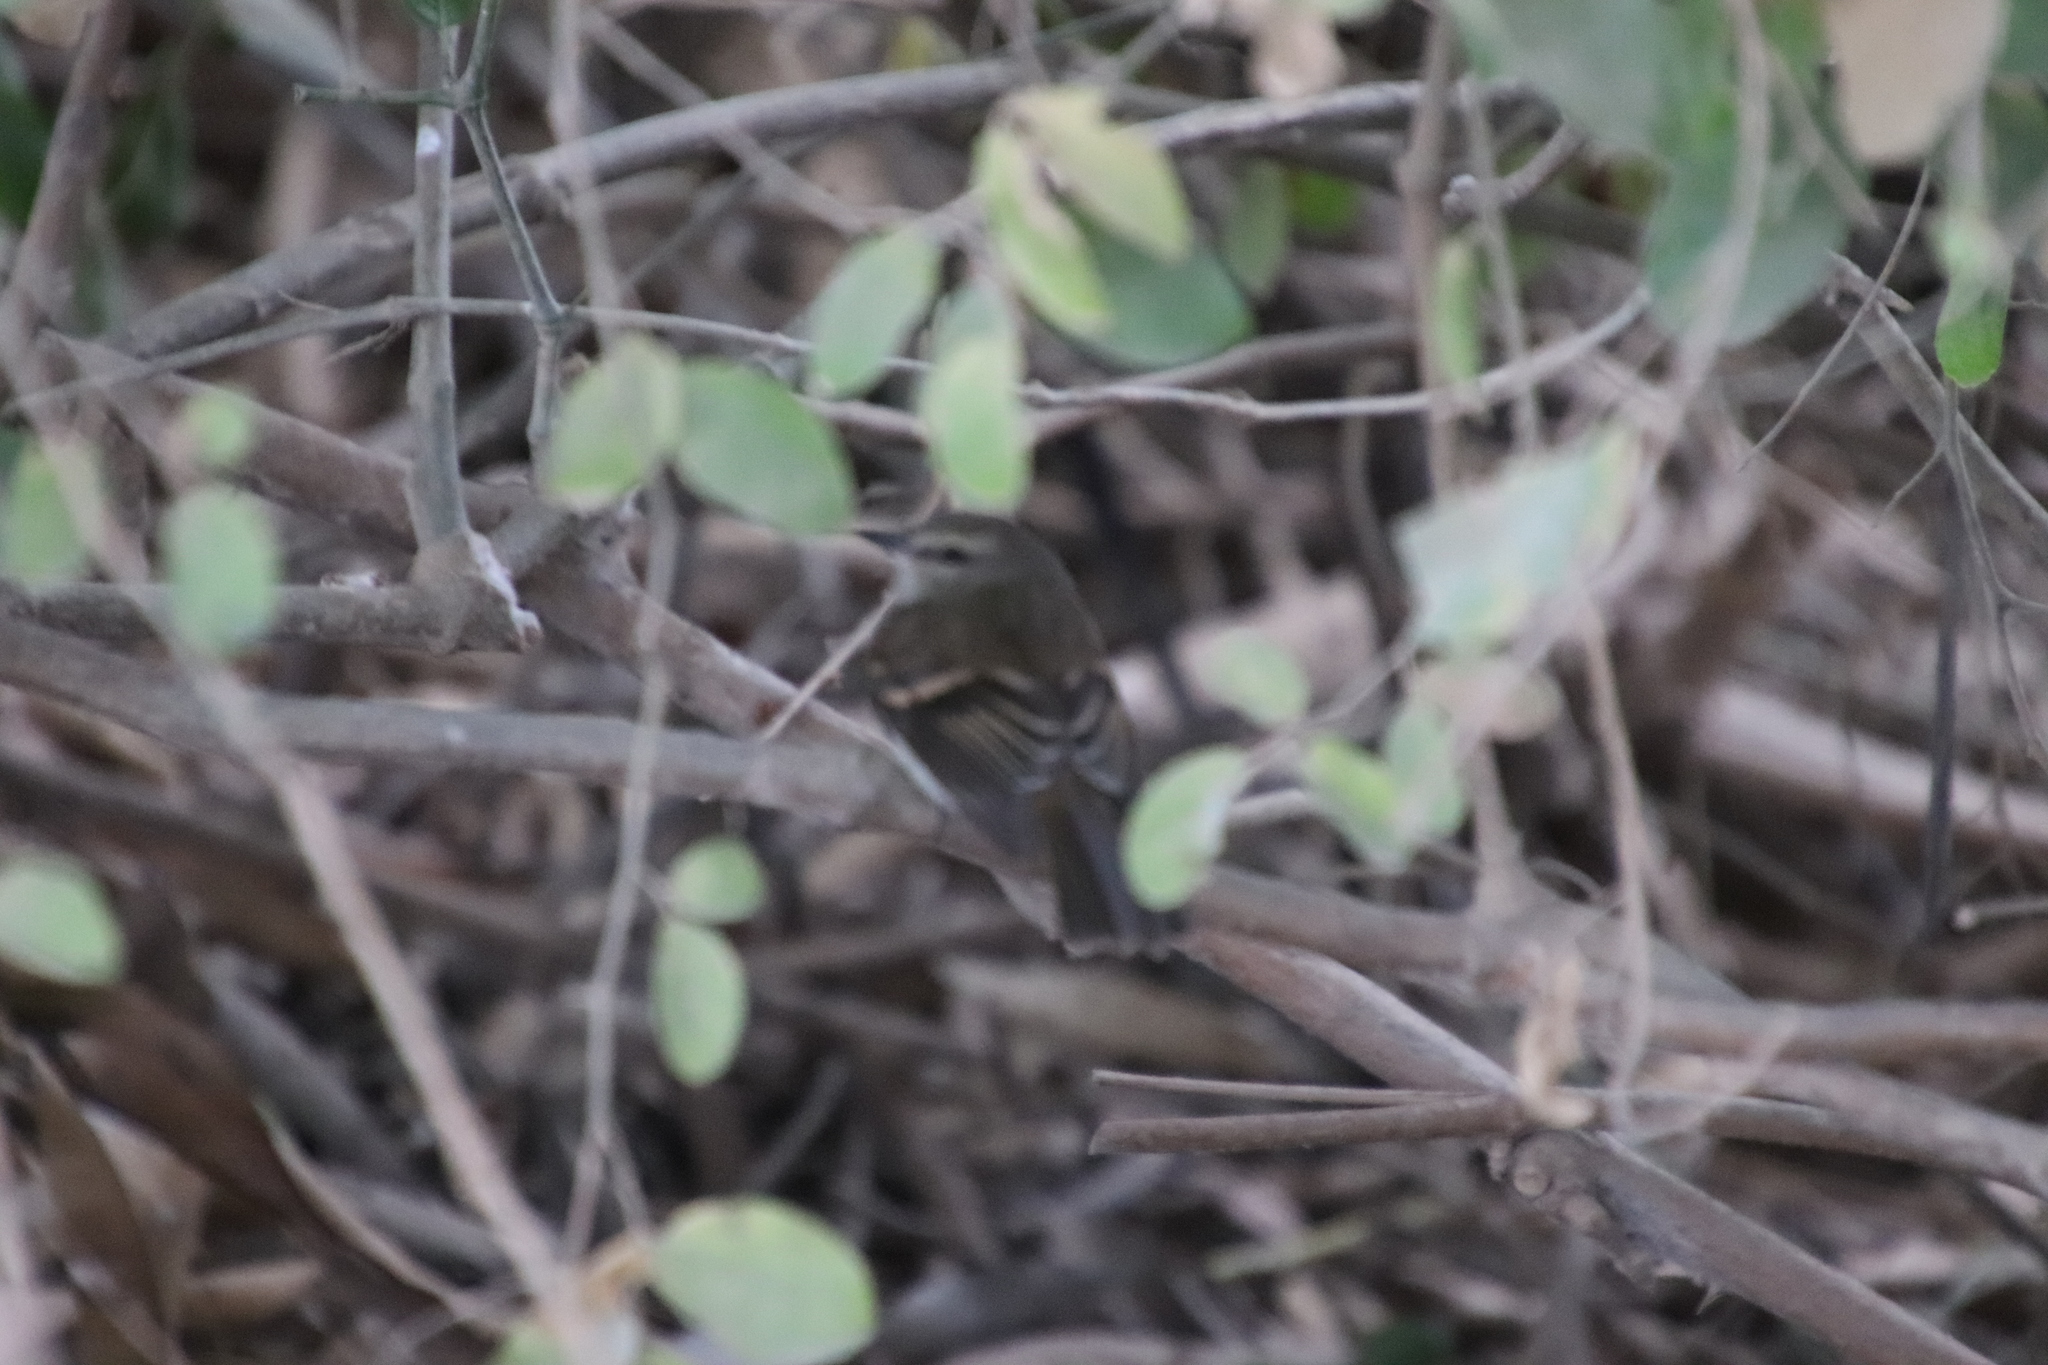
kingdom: Animalia
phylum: Chordata
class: Aves
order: Passeriformes
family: Tyrannidae
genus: Cnemotriccus
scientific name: Cnemotriccus fuscatus
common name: Fuscous flycatcher
